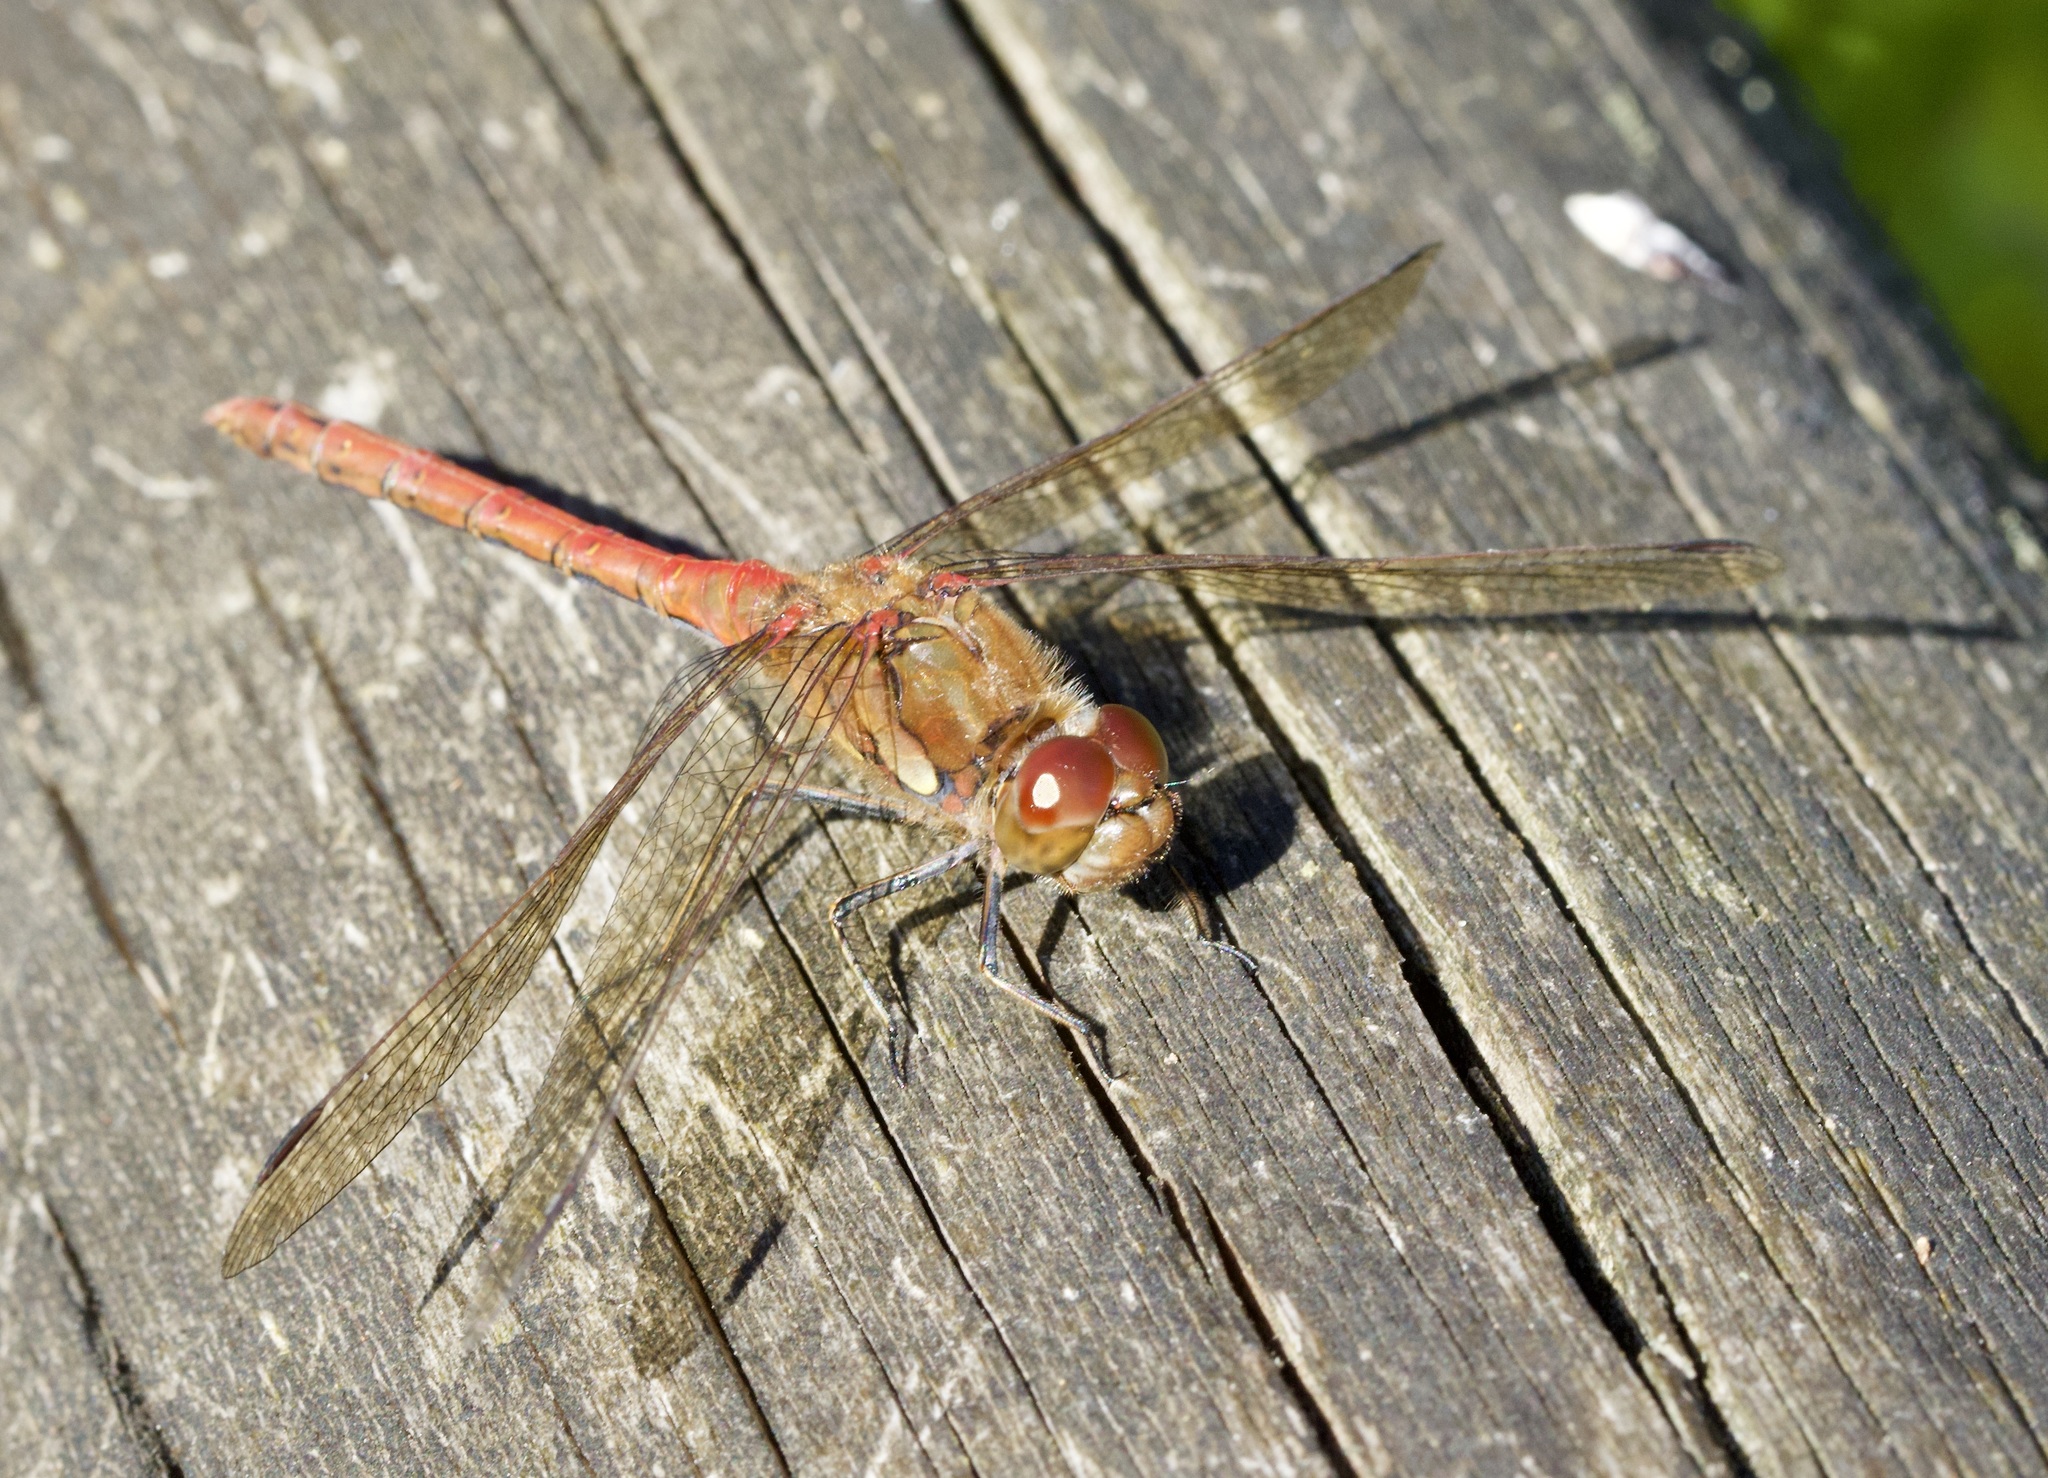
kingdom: Animalia
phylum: Arthropoda
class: Insecta
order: Odonata
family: Libellulidae
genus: Sympetrum
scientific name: Sympetrum striolatum
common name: Common darter
